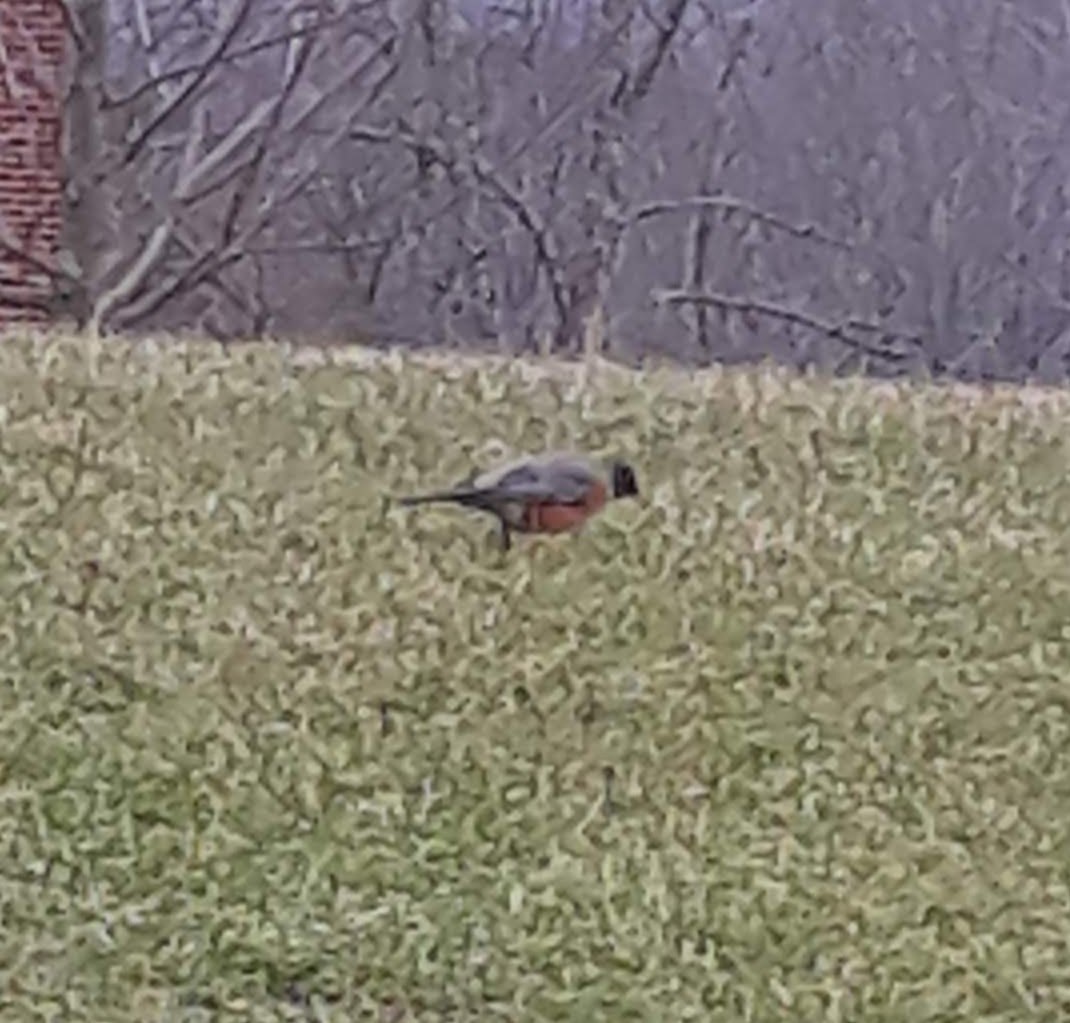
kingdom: Animalia
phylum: Chordata
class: Aves
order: Passeriformes
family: Turdidae
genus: Turdus
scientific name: Turdus migratorius
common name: American robin
